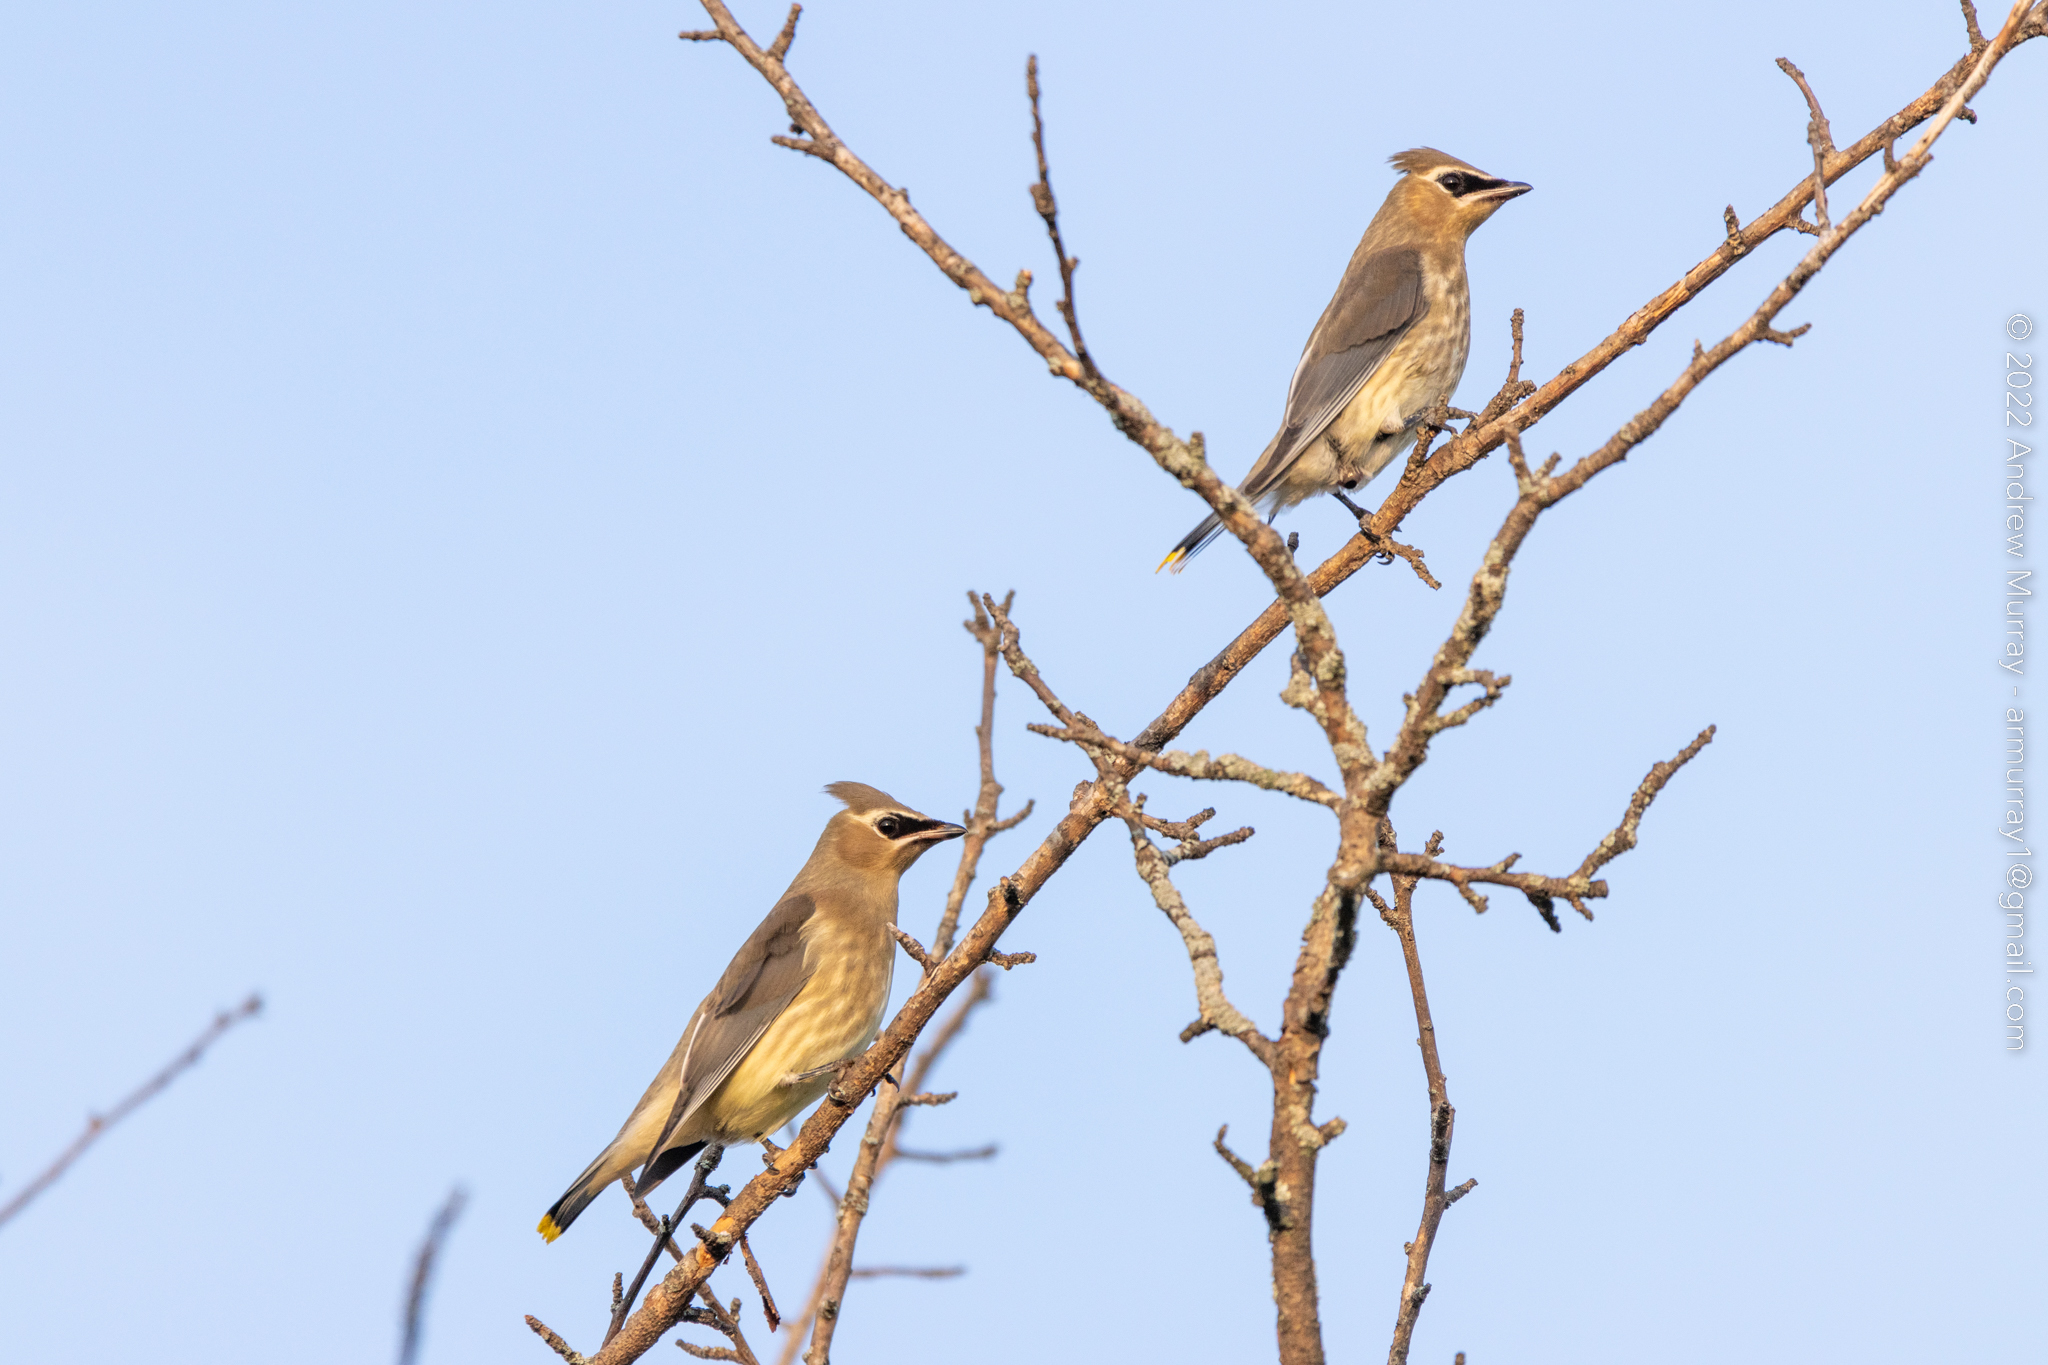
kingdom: Animalia
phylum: Chordata
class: Aves
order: Passeriformes
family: Bombycillidae
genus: Bombycilla
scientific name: Bombycilla cedrorum
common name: Cedar waxwing
